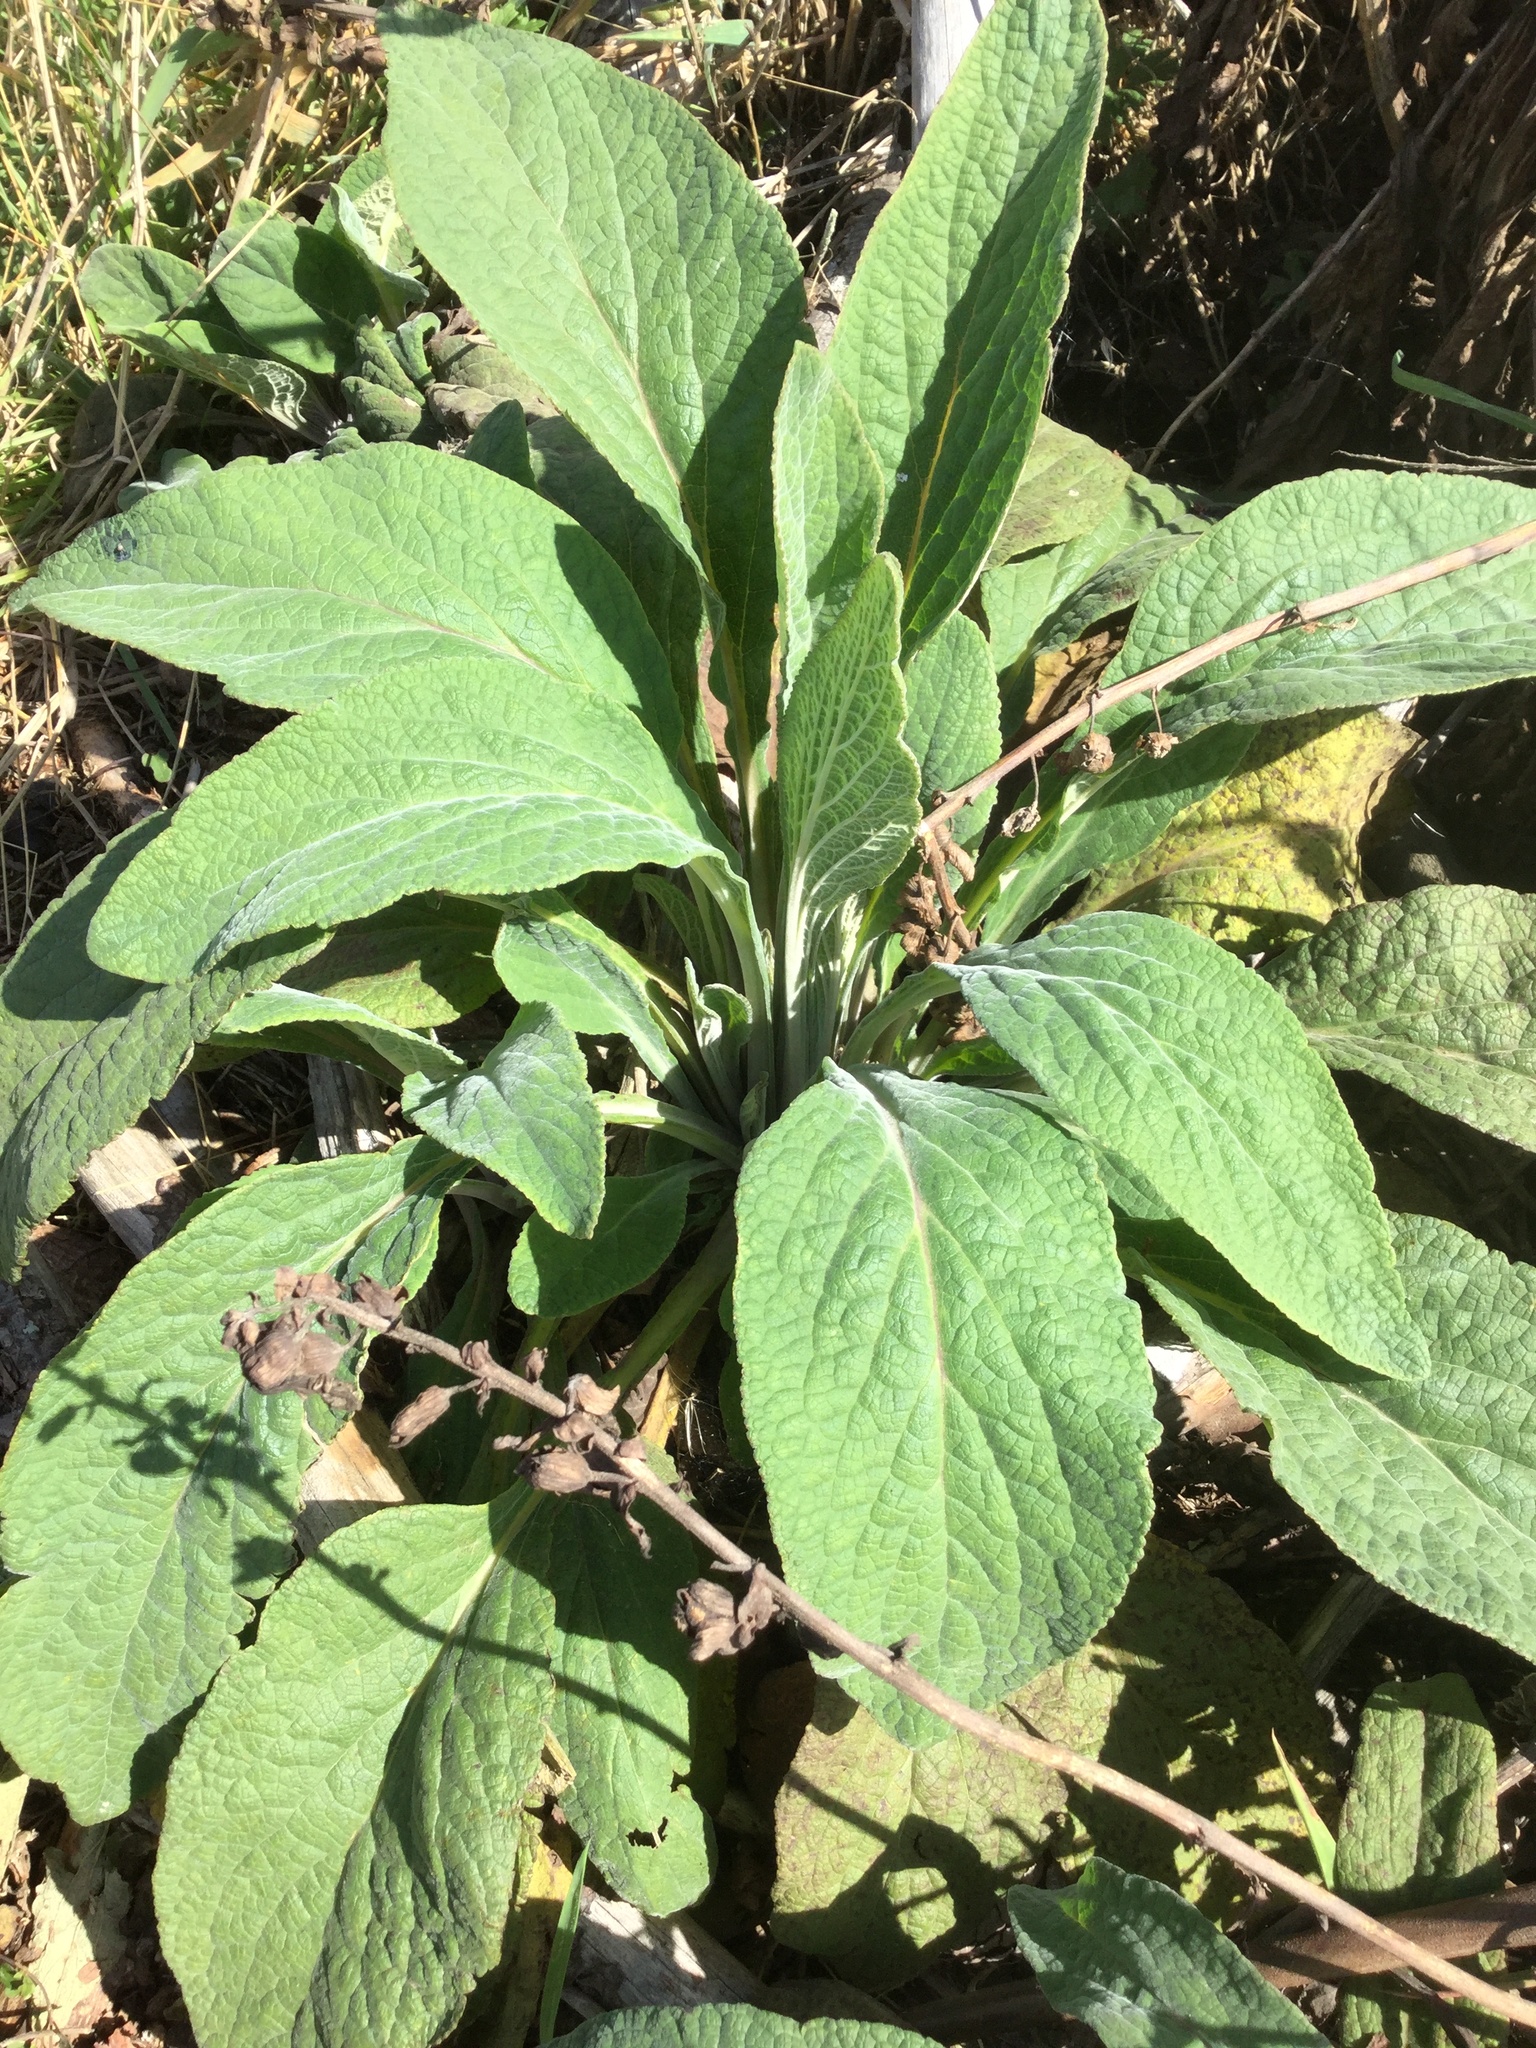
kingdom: Plantae
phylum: Tracheophyta
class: Magnoliopsida
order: Lamiales
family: Plantaginaceae
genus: Digitalis
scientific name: Digitalis purpurea
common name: Foxglove
